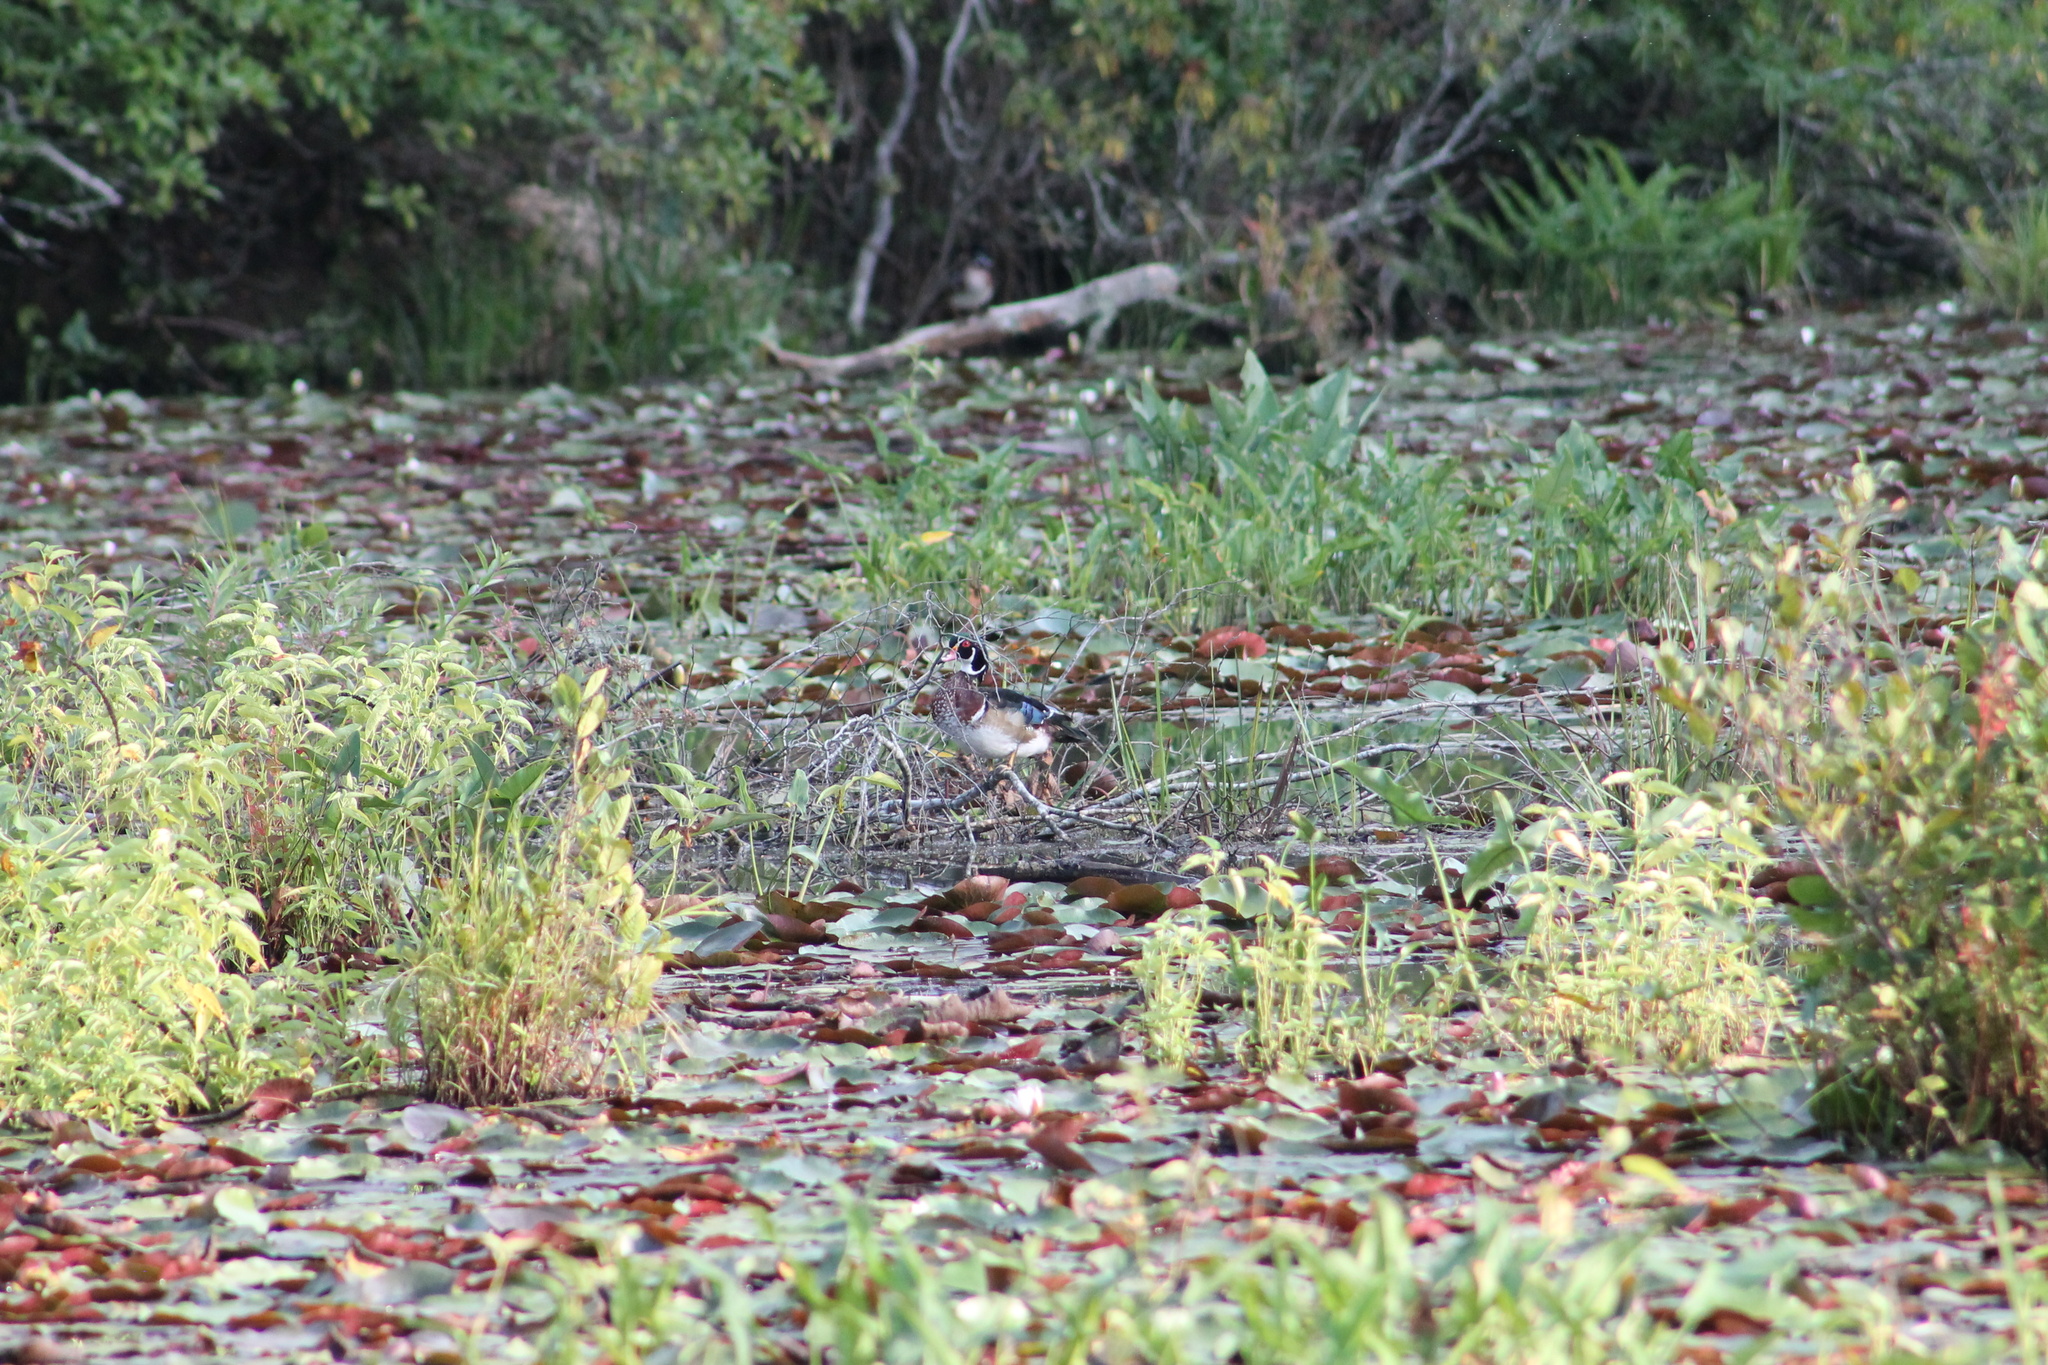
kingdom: Animalia
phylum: Chordata
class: Aves
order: Anseriformes
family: Anatidae
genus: Aix
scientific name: Aix sponsa
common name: Wood duck
